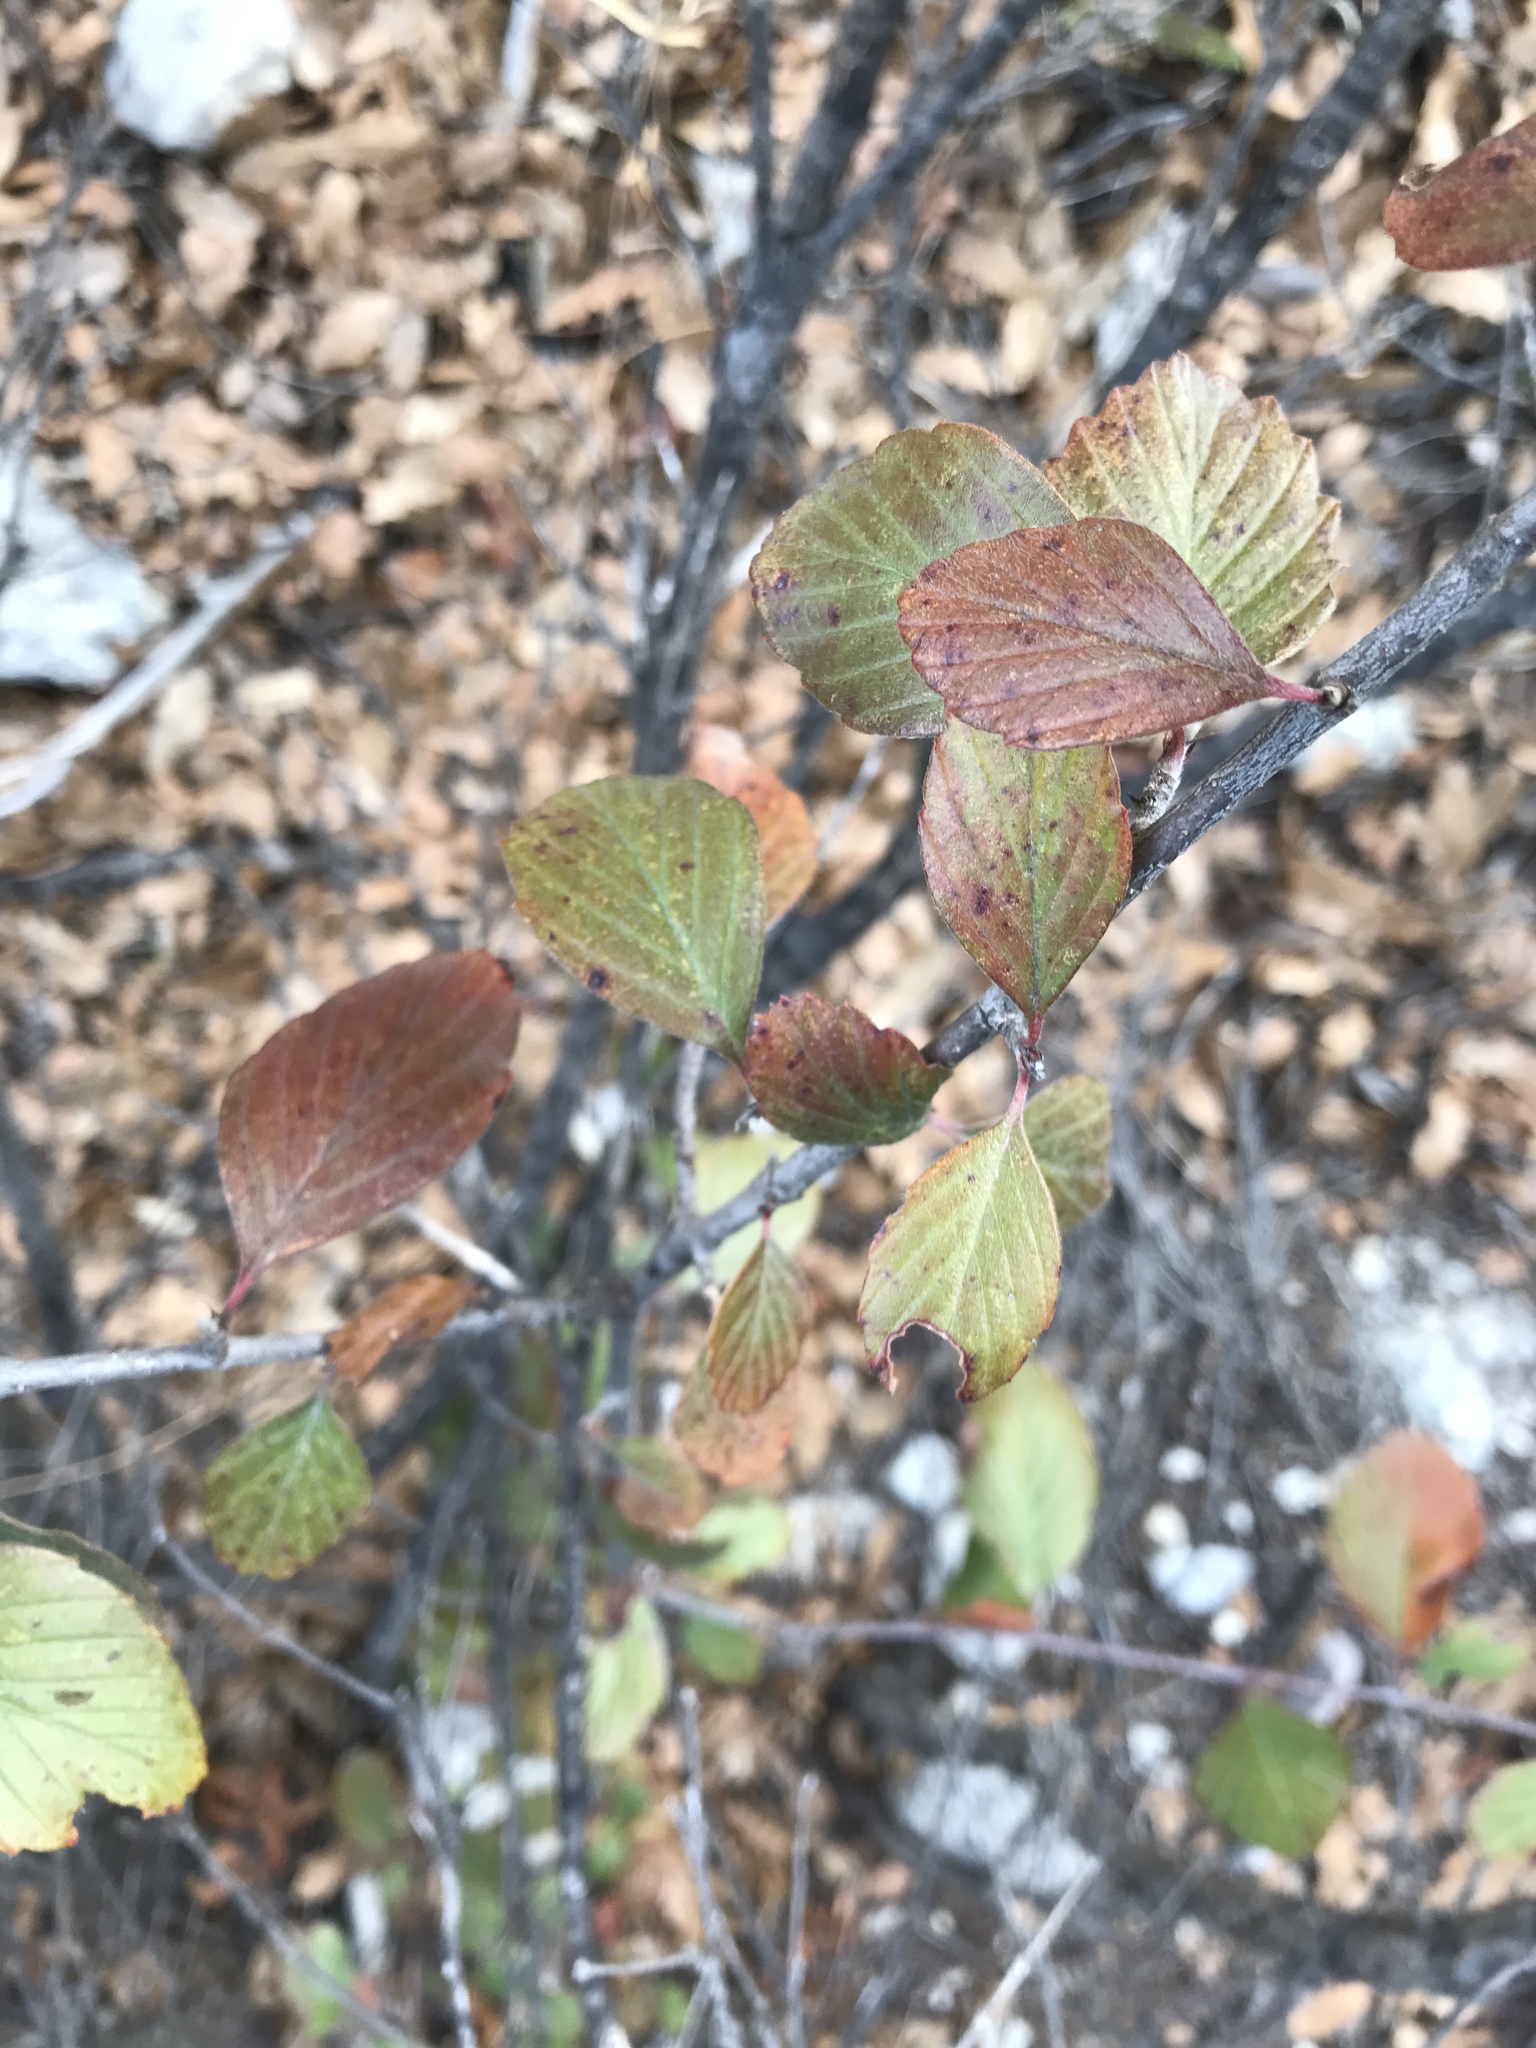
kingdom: Plantae
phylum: Tracheophyta
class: Magnoliopsida
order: Rosales
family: Rosaceae
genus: Cercocarpus
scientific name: Cercocarpus montanus
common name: Alder-leaf cercocarpus
